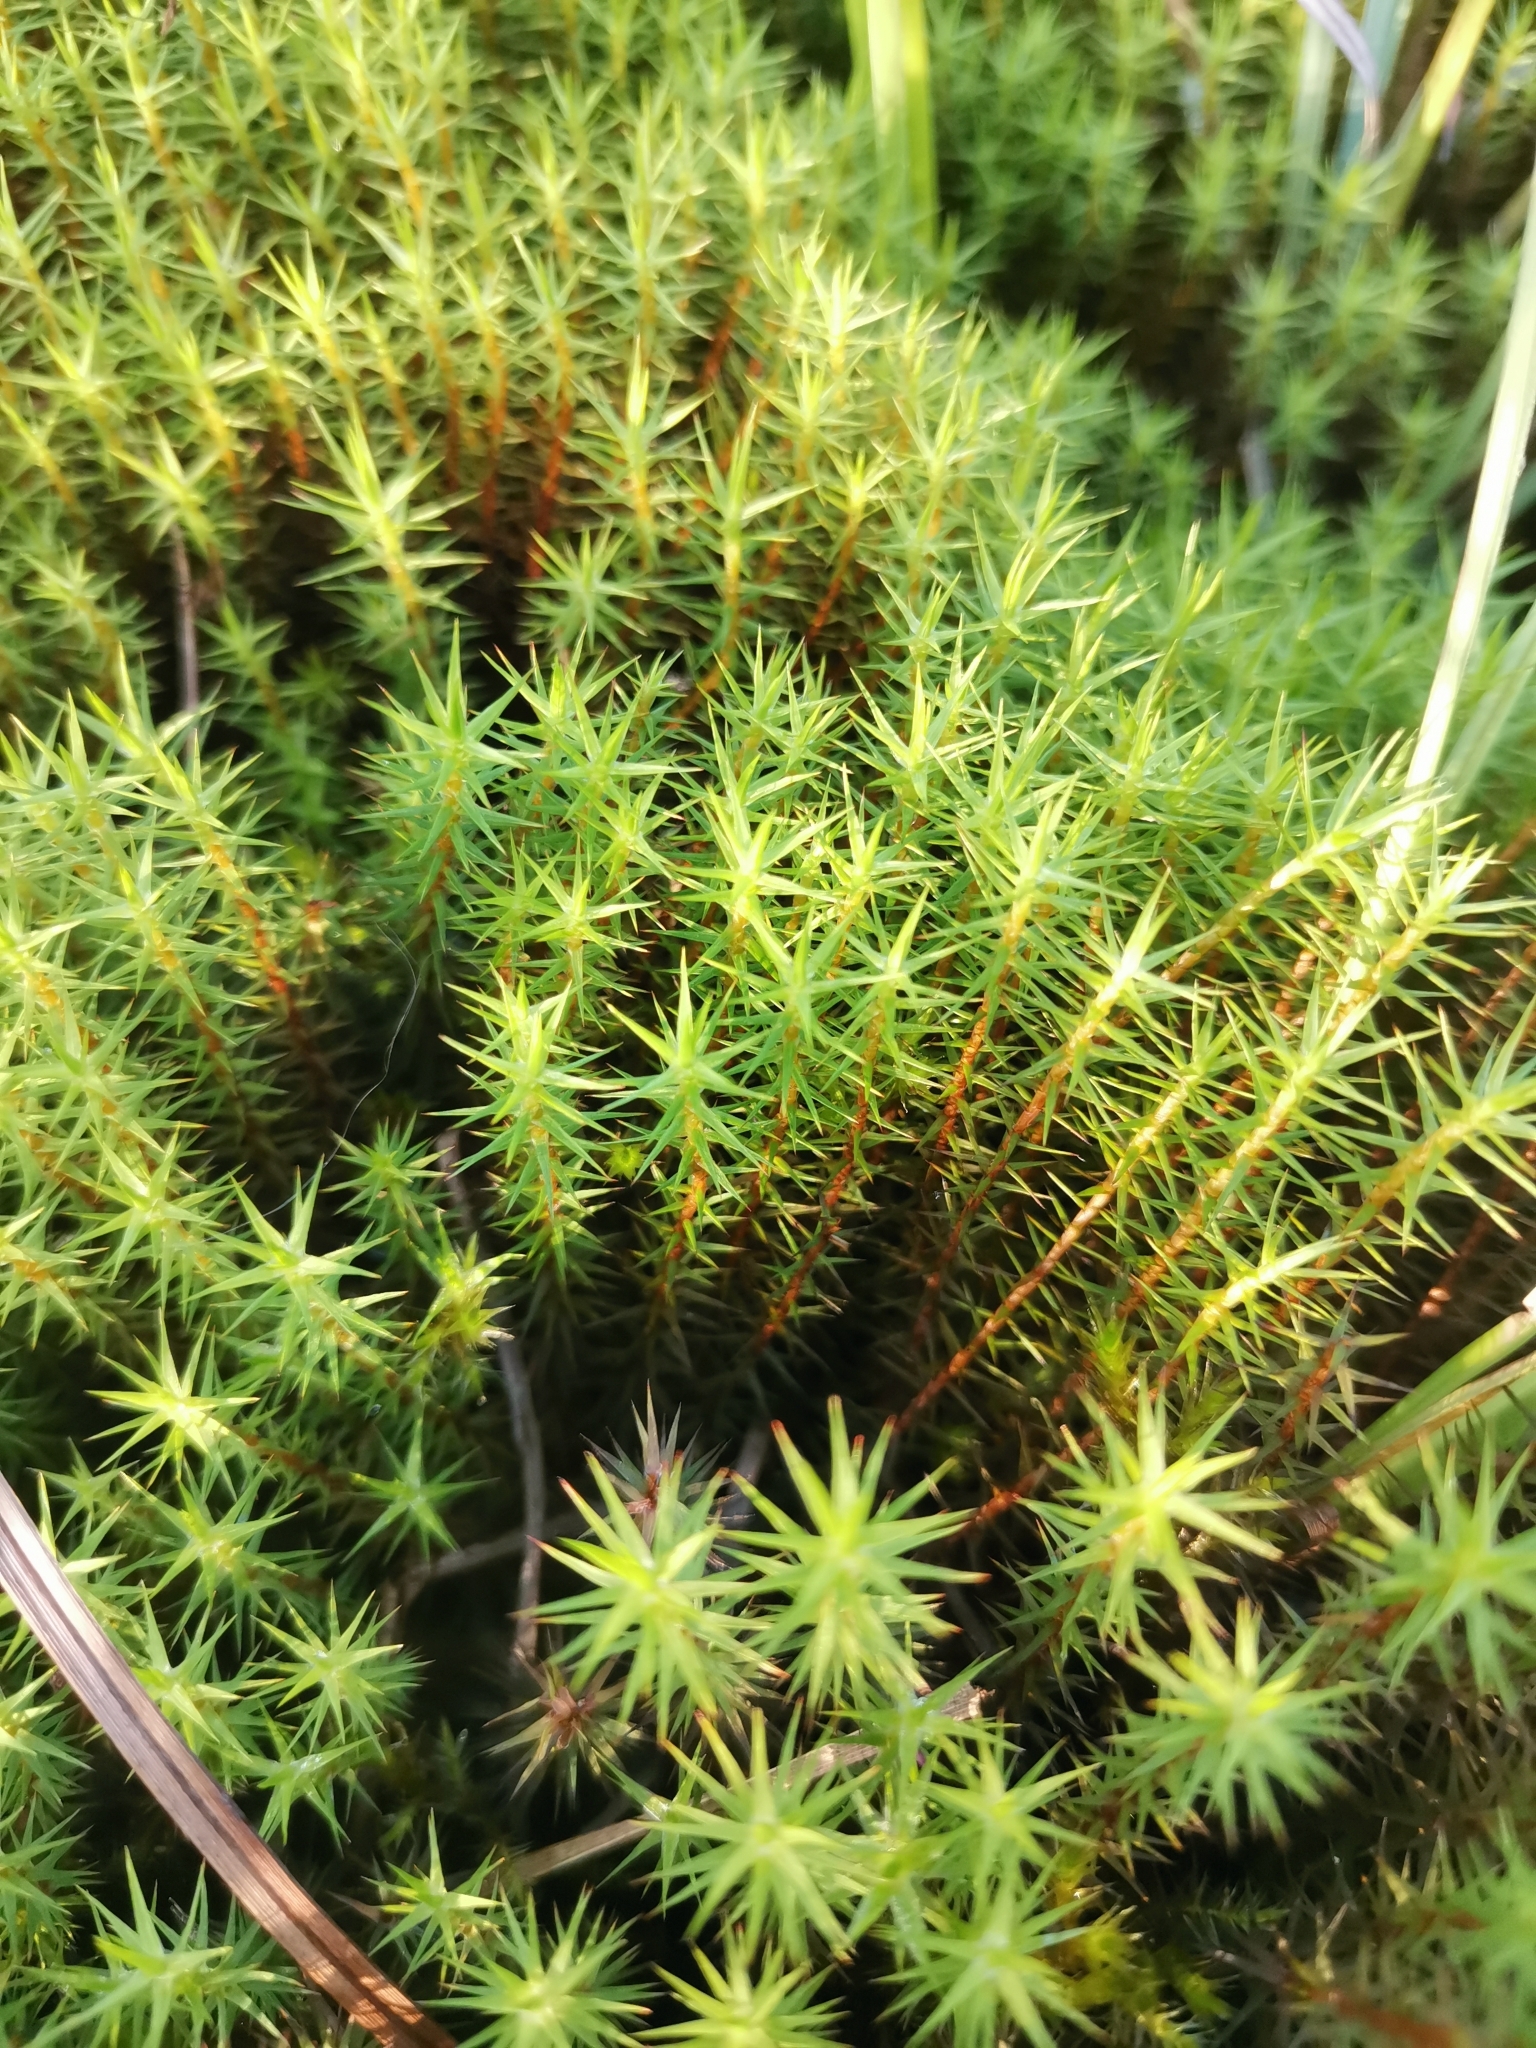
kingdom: Plantae
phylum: Bryophyta
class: Polytrichopsida
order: Polytrichales
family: Polytrichaceae
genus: Polytrichum
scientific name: Polytrichum strictum
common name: Bog haircap moss
